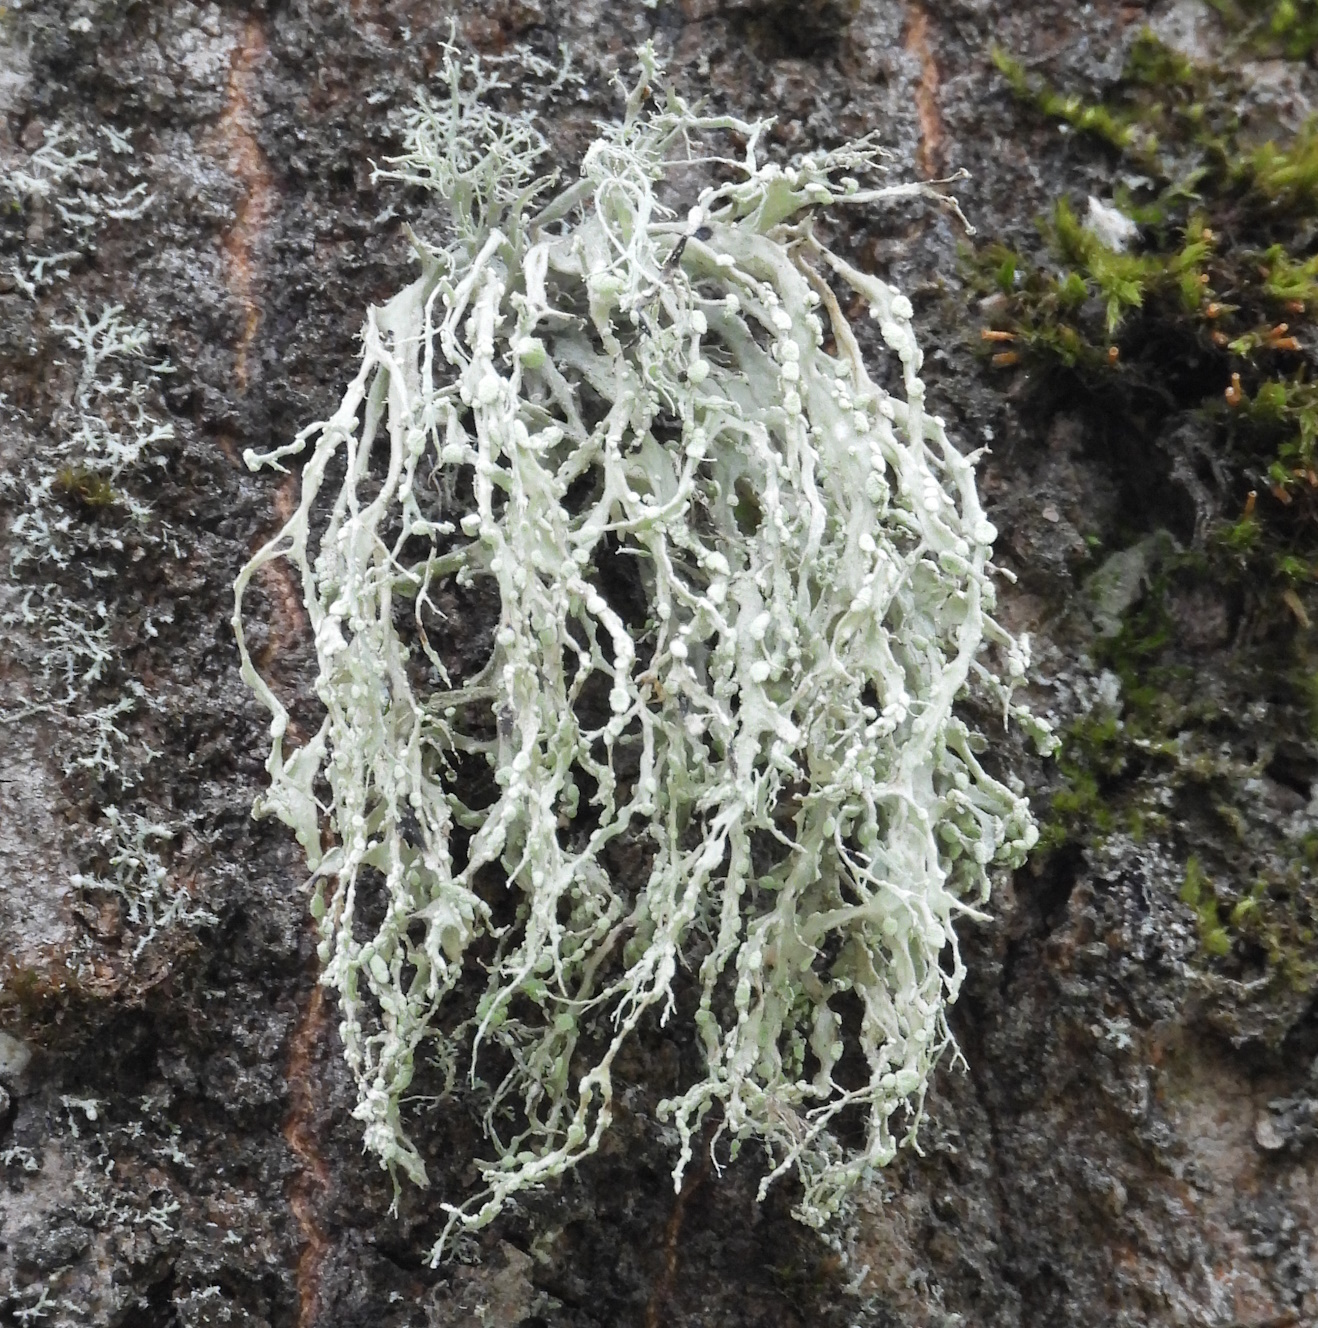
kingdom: Fungi
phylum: Ascomycota
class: Lecanoromycetes
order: Lecanorales
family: Ramalinaceae
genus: Ramalina
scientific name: Ramalina farinacea
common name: Farinose cartilage lichen
